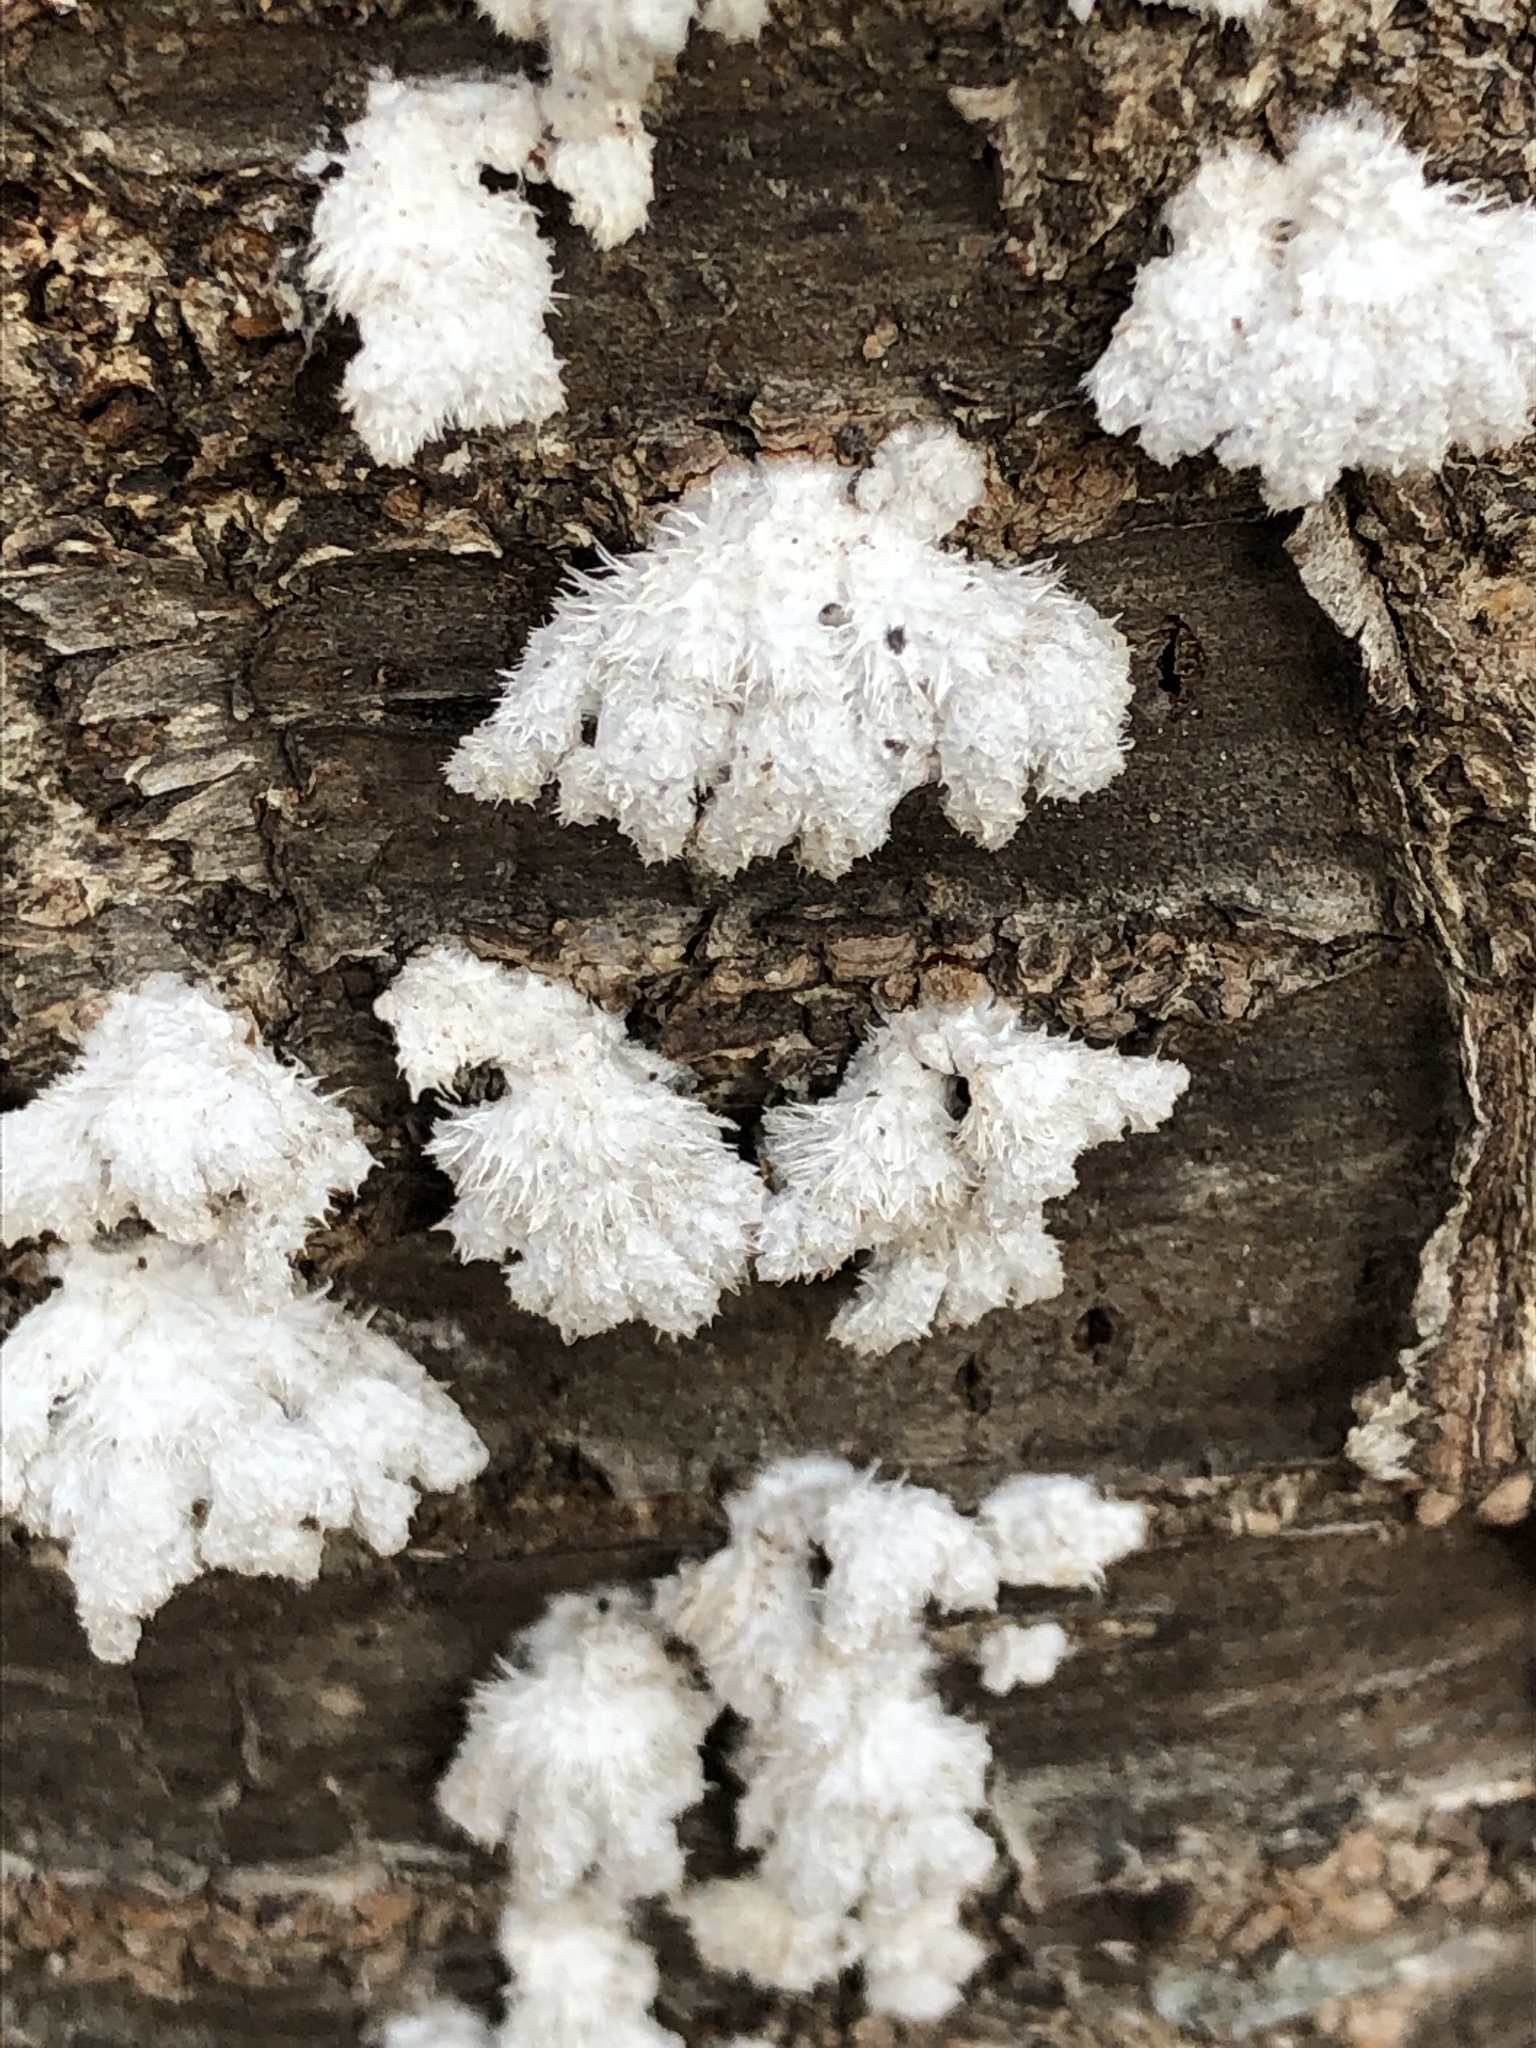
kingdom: Fungi
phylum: Basidiomycota
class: Agaricomycetes
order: Agaricales
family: Schizophyllaceae
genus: Schizophyllum
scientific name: Schizophyllum commune
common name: Common porecrust
